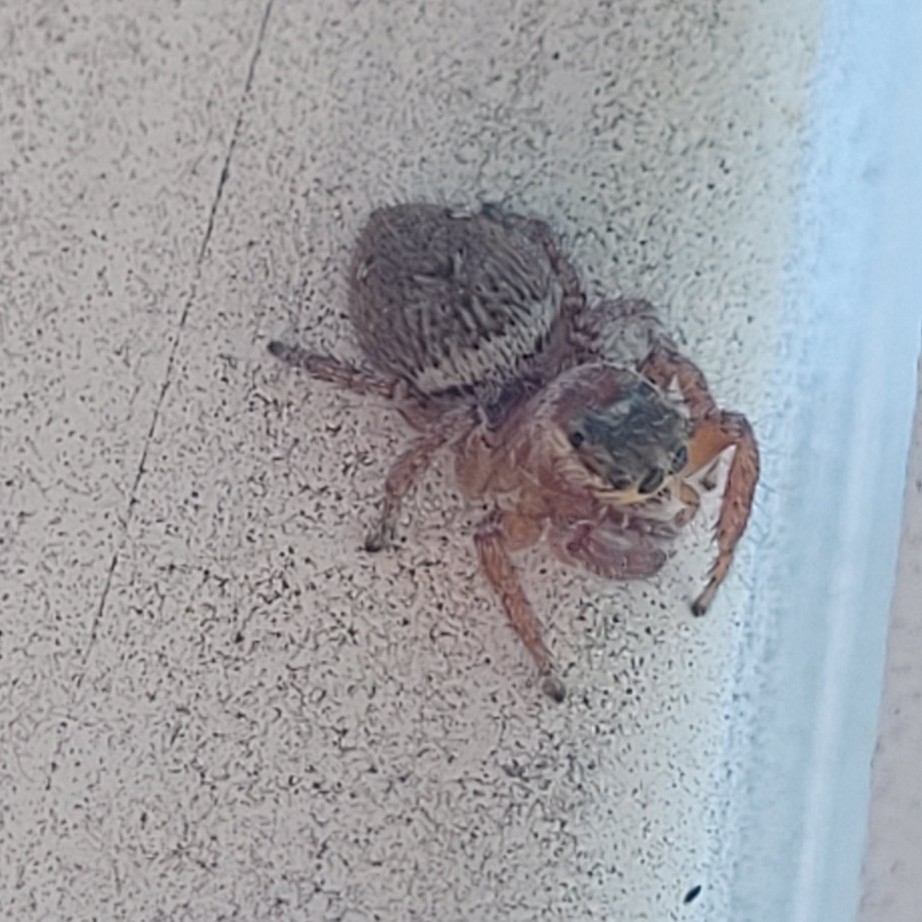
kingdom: Animalia
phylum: Arthropoda
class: Arachnida
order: Araneae
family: Salticidae
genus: Evarcha
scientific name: Evarcha jucunda
